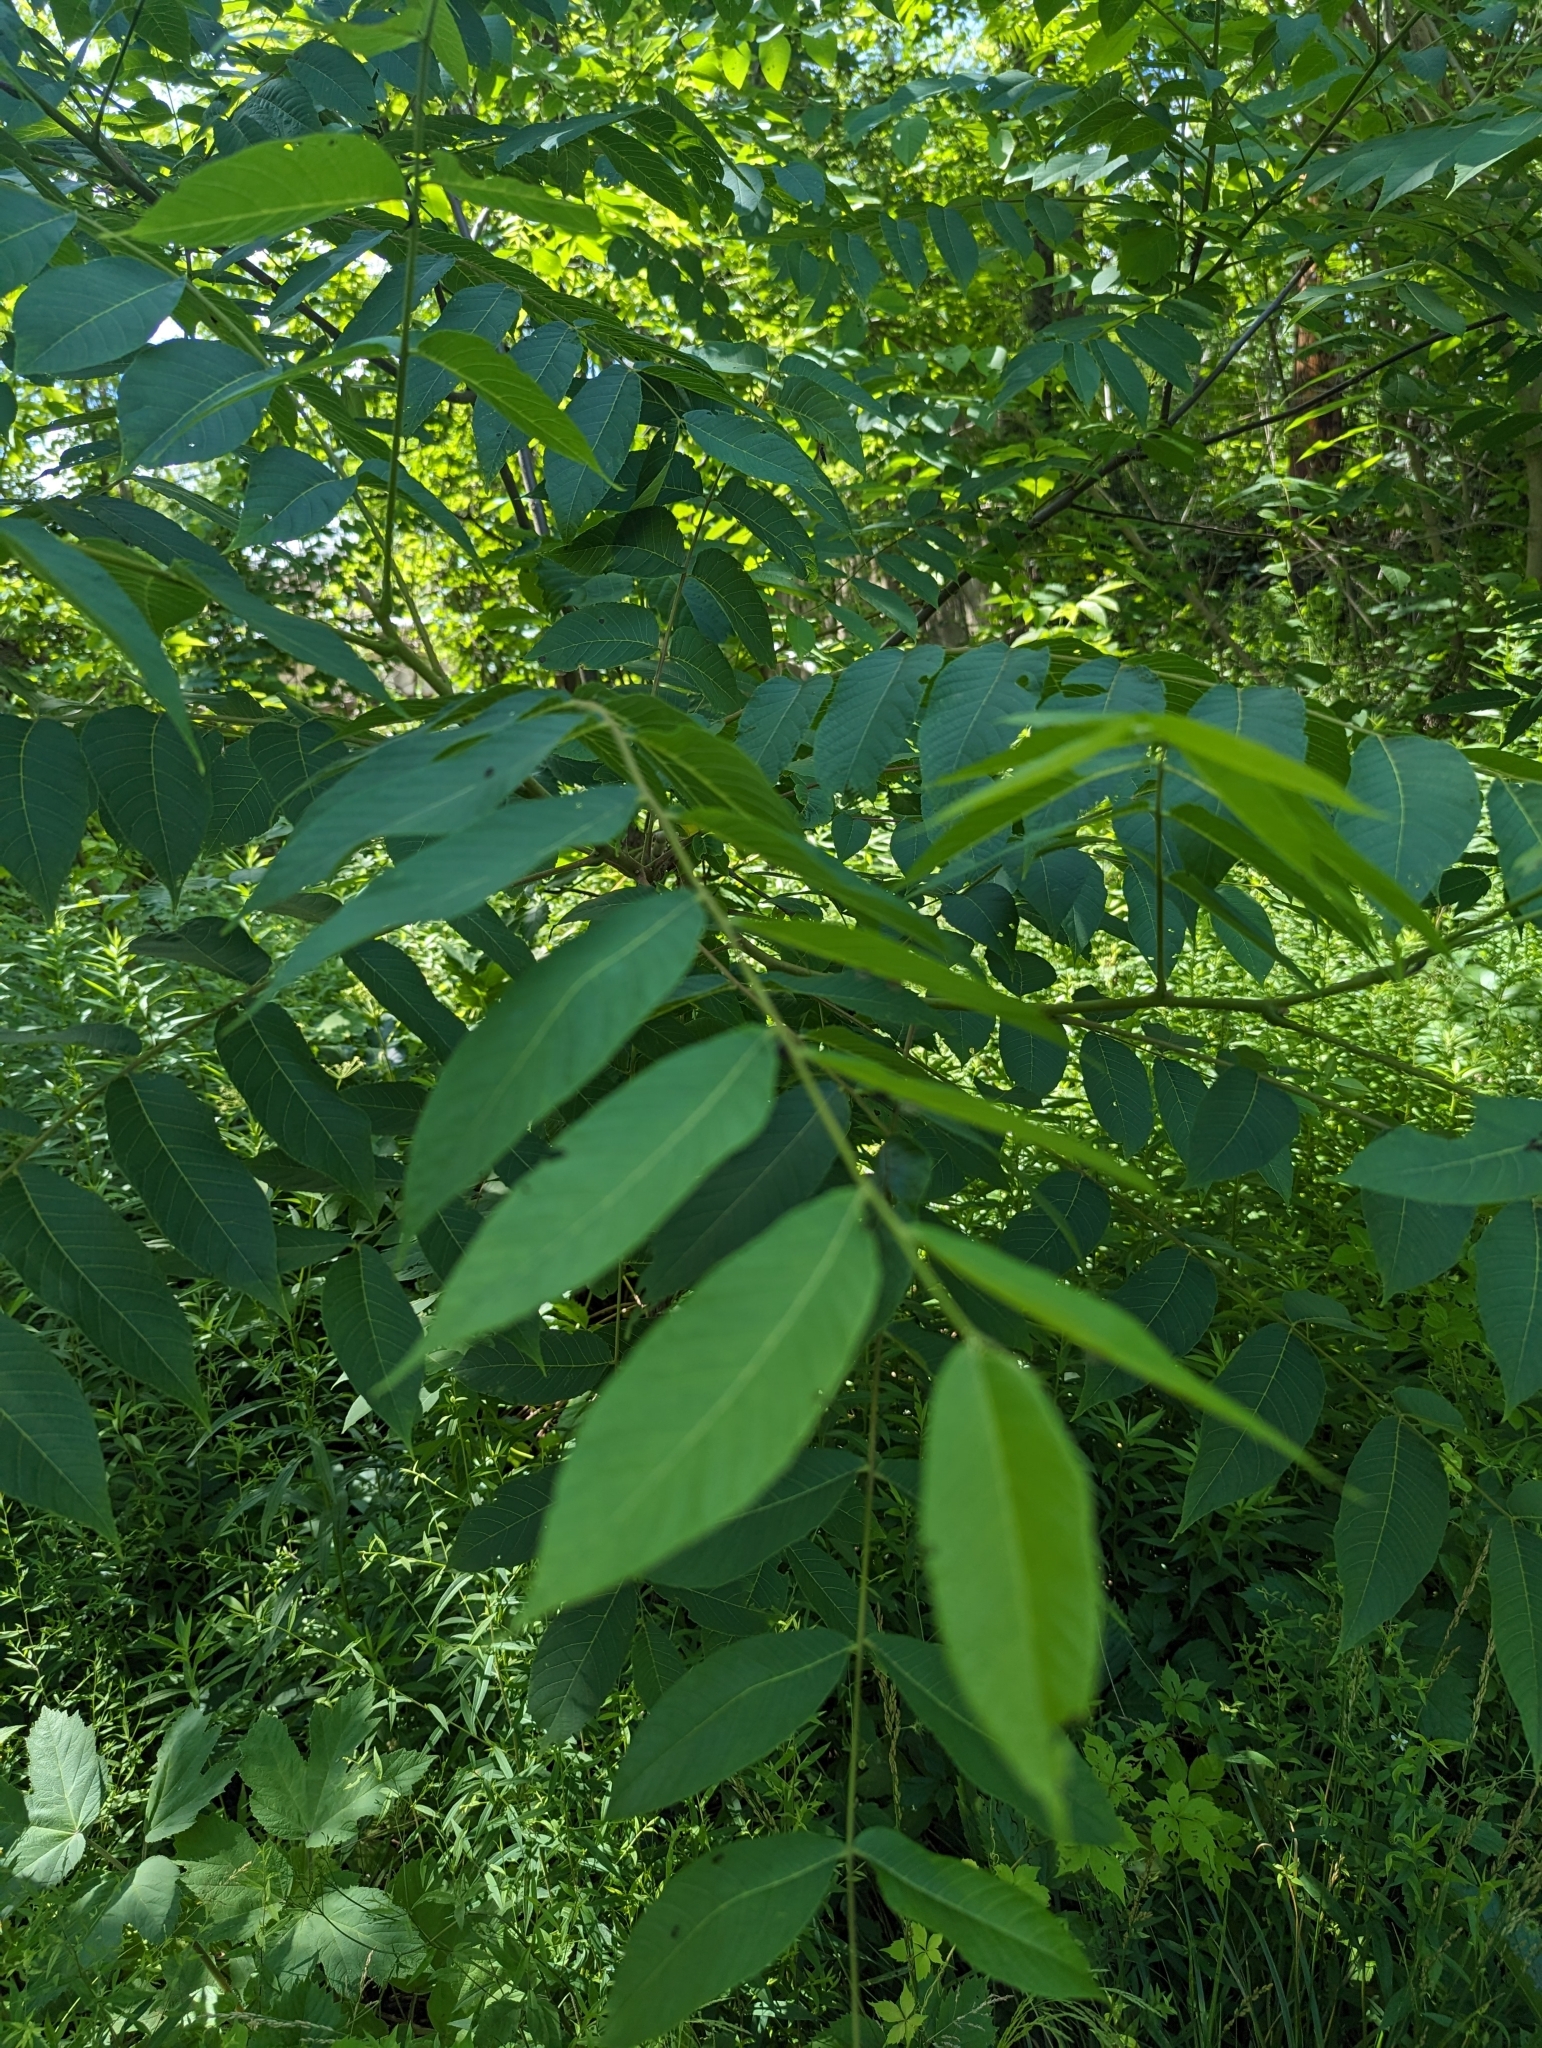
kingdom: Plantae
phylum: Tracheophyta
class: Magnoliopsida
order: Fagales
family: Juglandaceae
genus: Juglans
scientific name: Juglans nigra
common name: Black walnut
